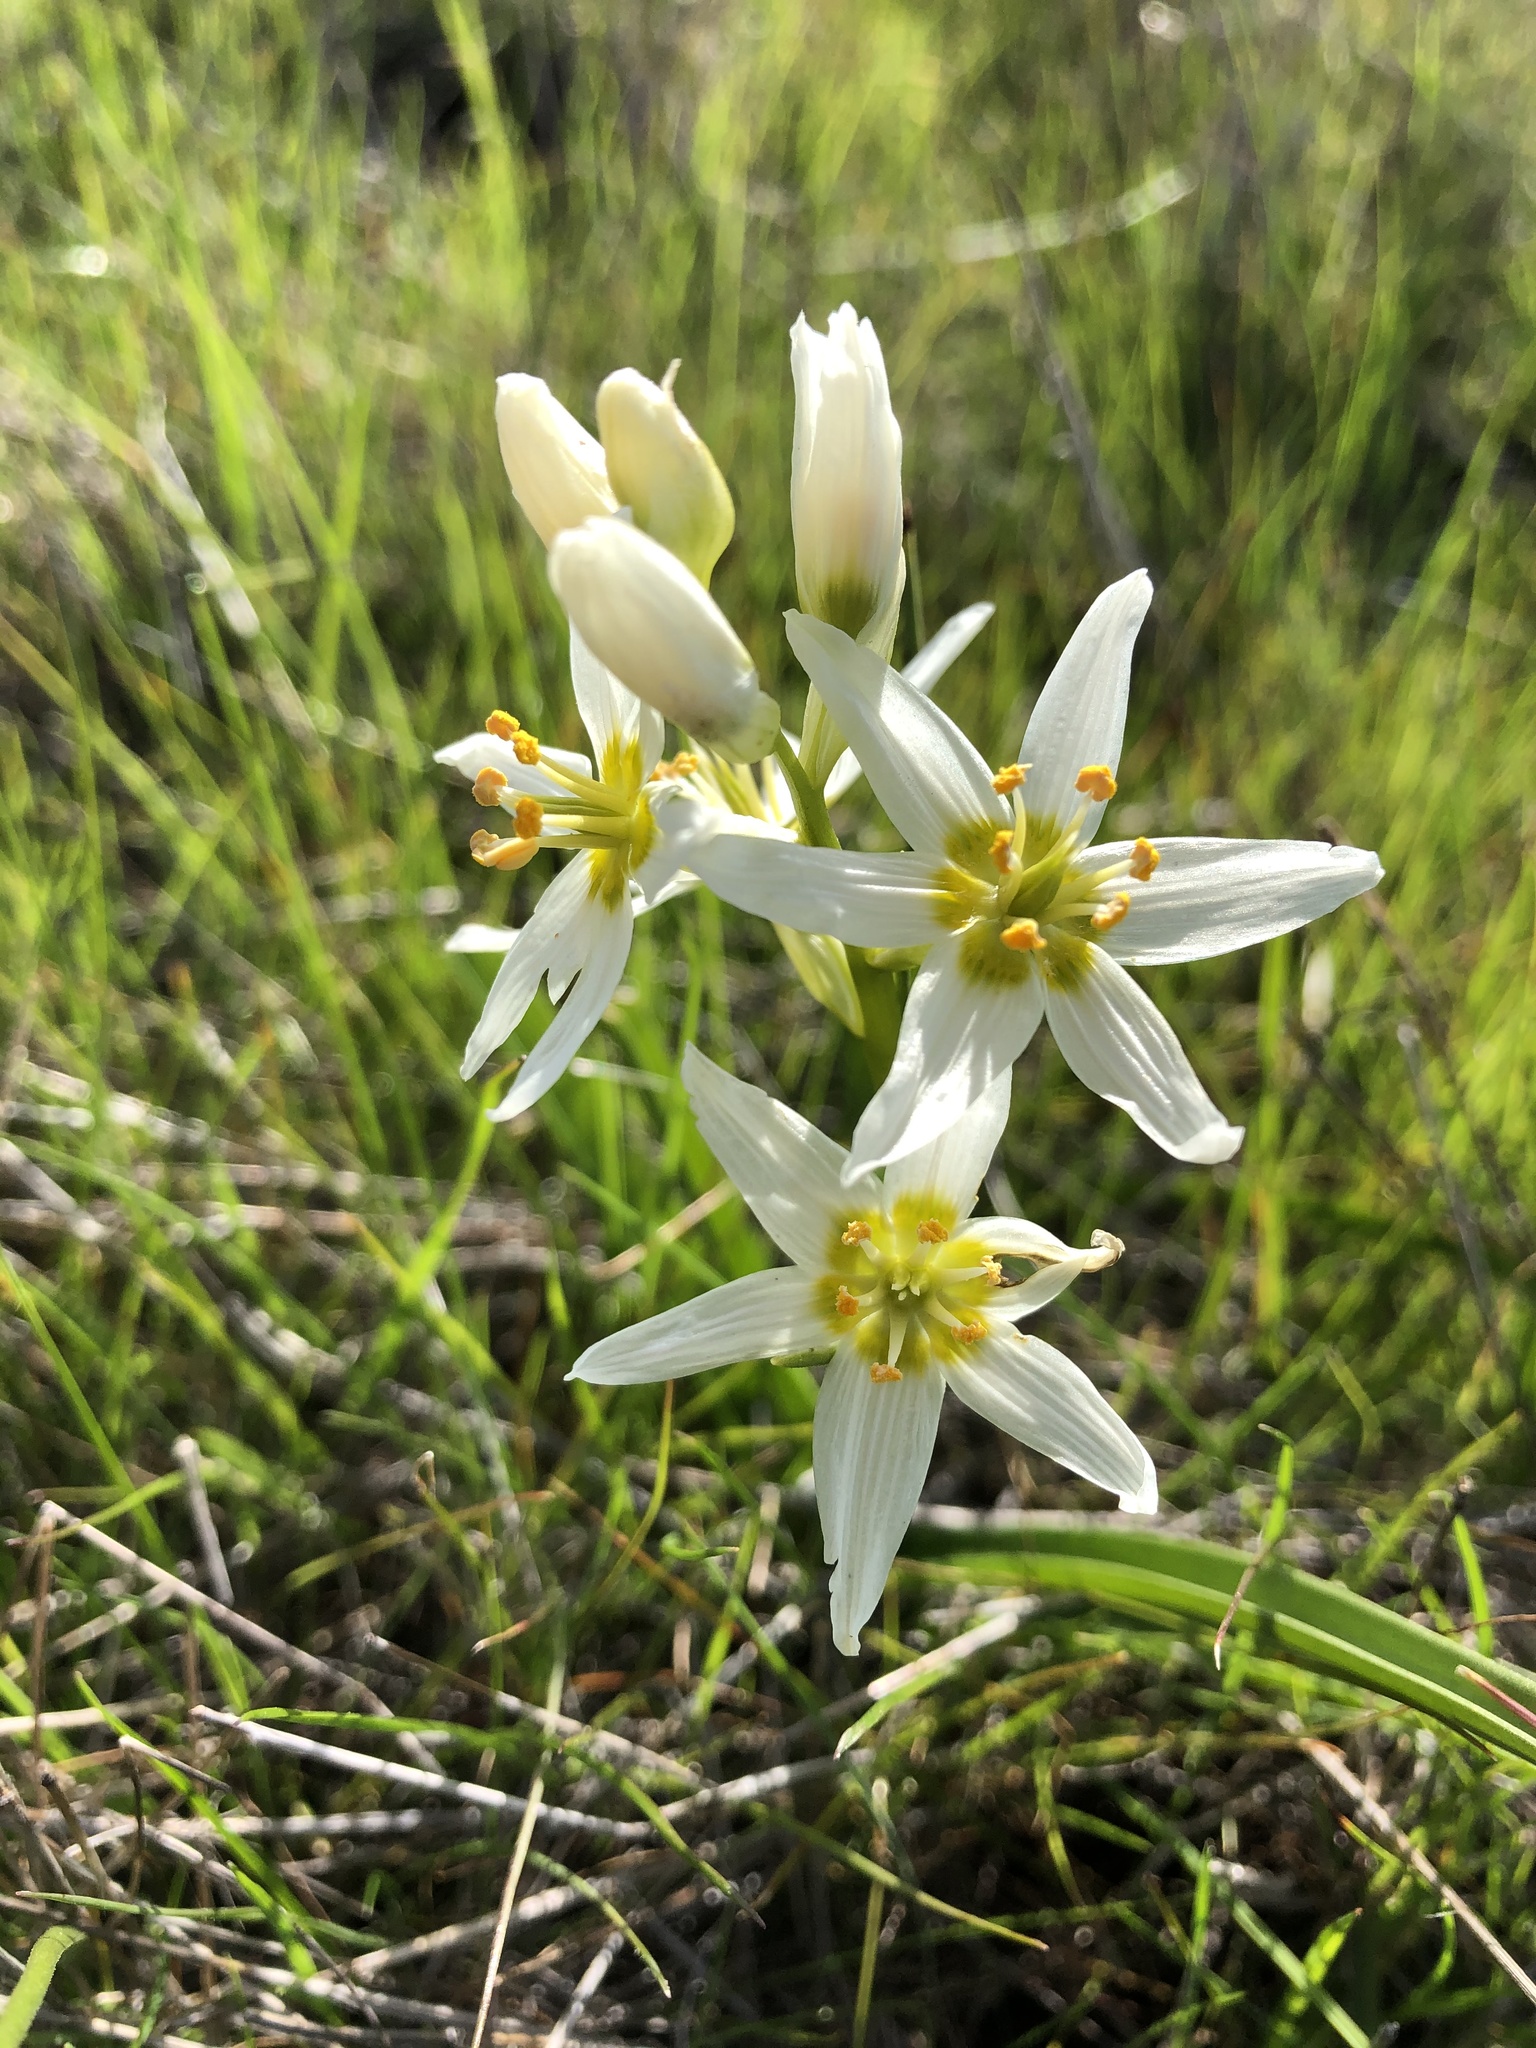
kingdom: Plantae
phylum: Tracheophyta
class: Liliopsida
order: Liliales
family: Melanthiaceae
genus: Toxicoscordion
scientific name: Toxicoscordion fremontii
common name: Fremont's death camas
